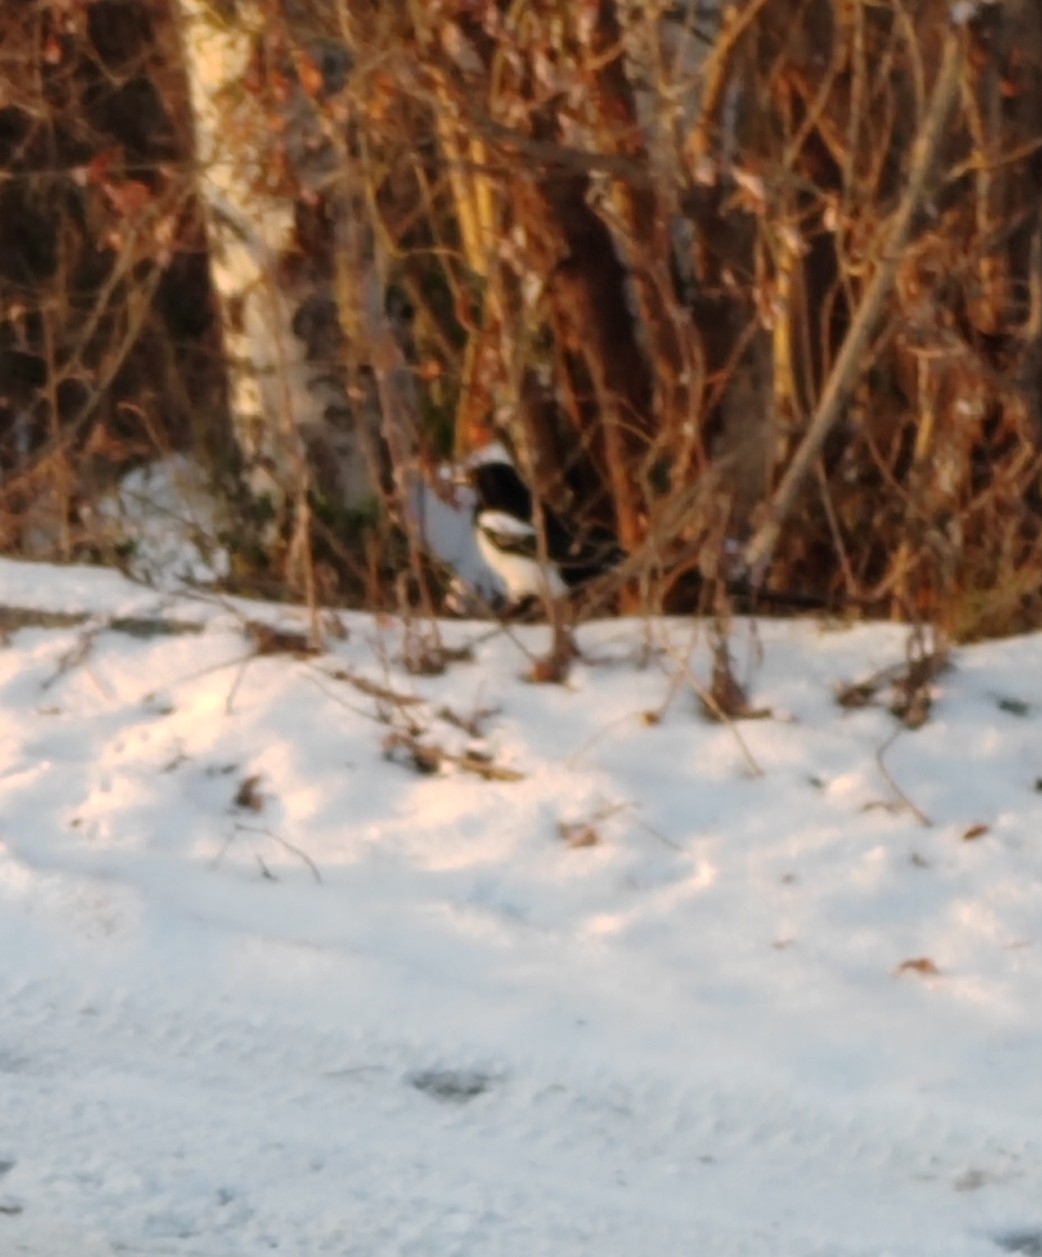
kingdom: Animalia
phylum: Chordata
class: Aves
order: Passeriformes
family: Corvidae
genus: Pica
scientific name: Pica pica
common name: Eurasian magpie
